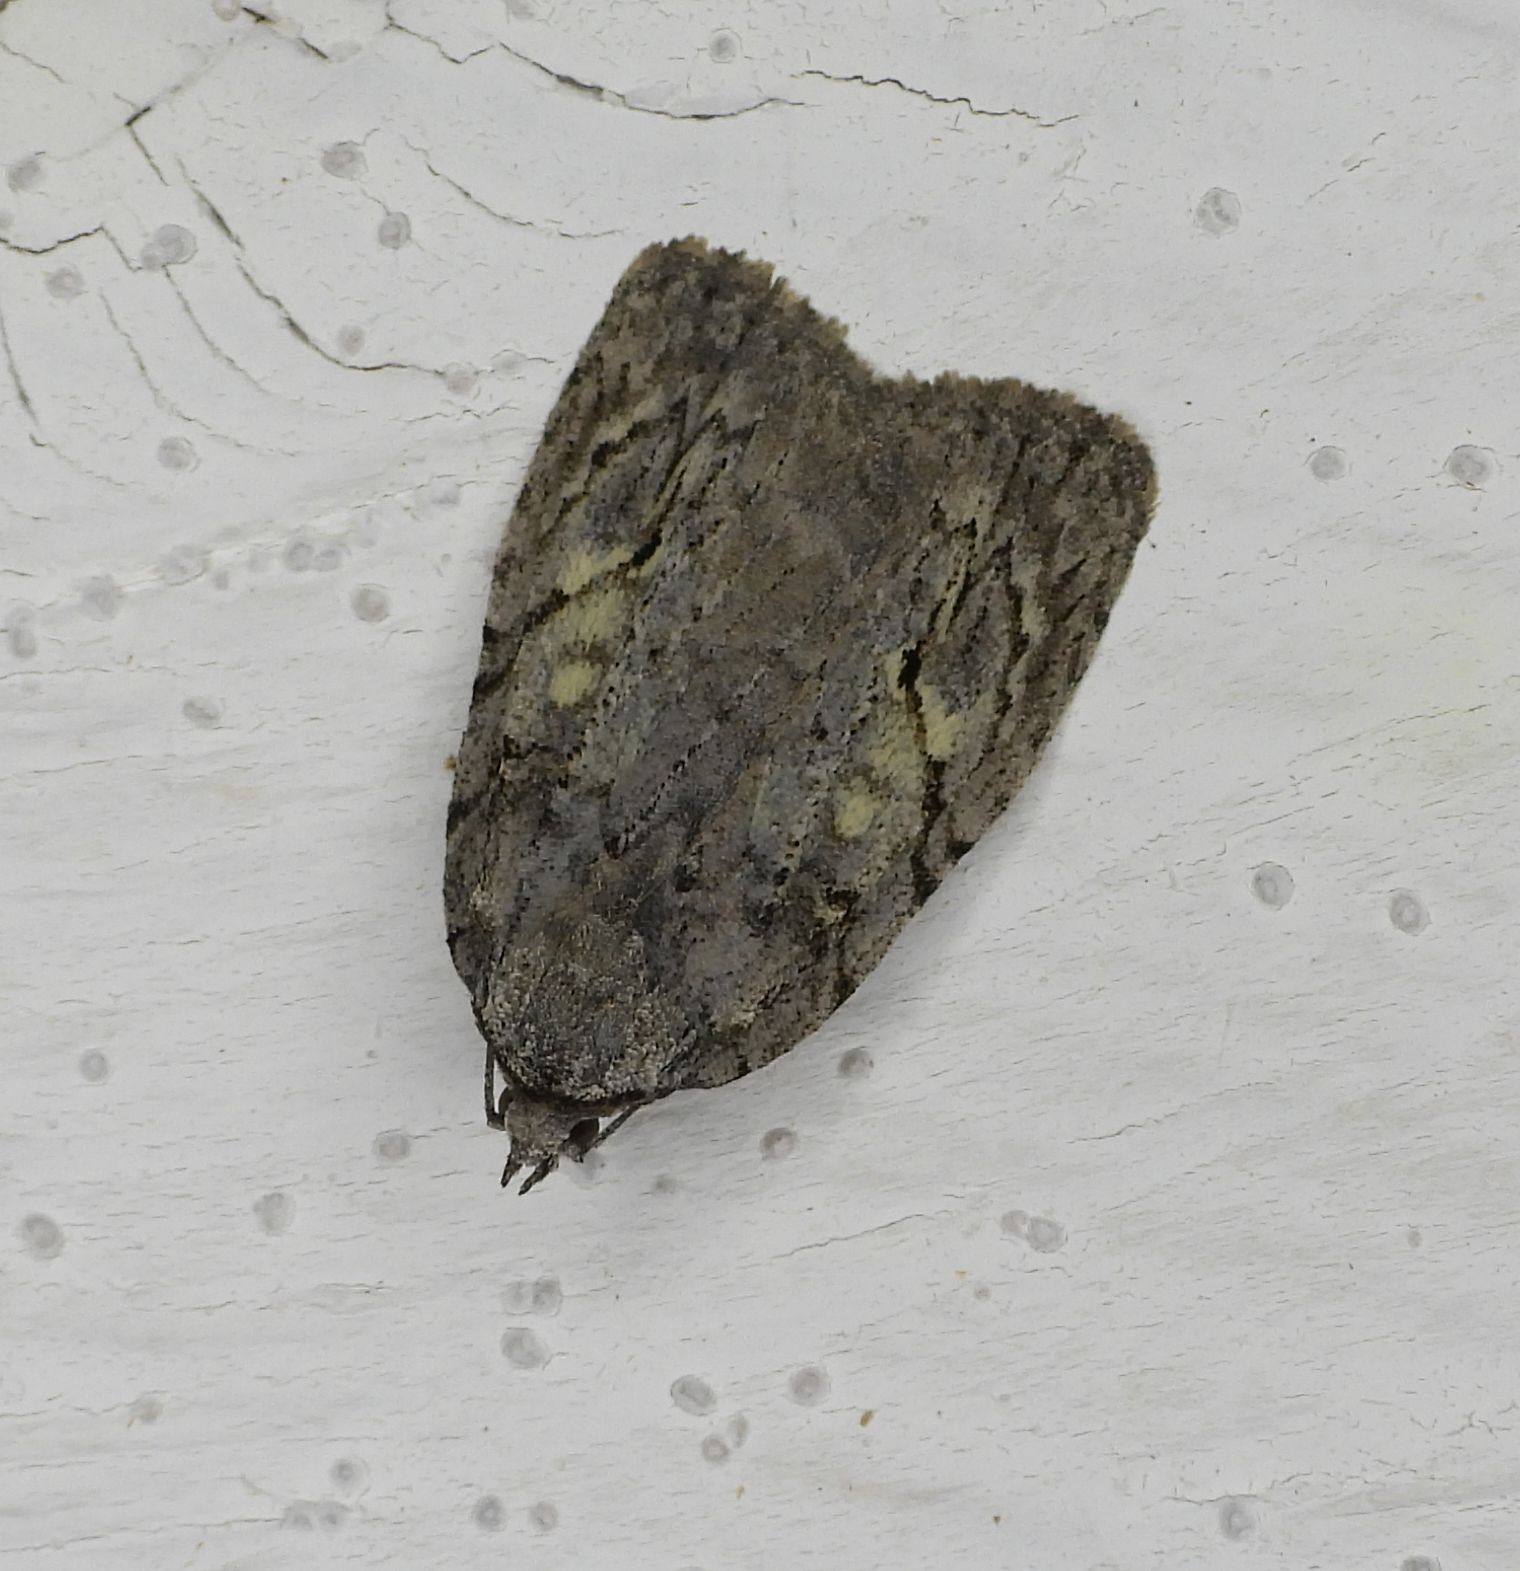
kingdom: Animalia
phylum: Arthropoda
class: Insecta
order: Lepidoptera
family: Noctuidae
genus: Balsa
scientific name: Balsa labecula
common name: White-blotched balsa moth
